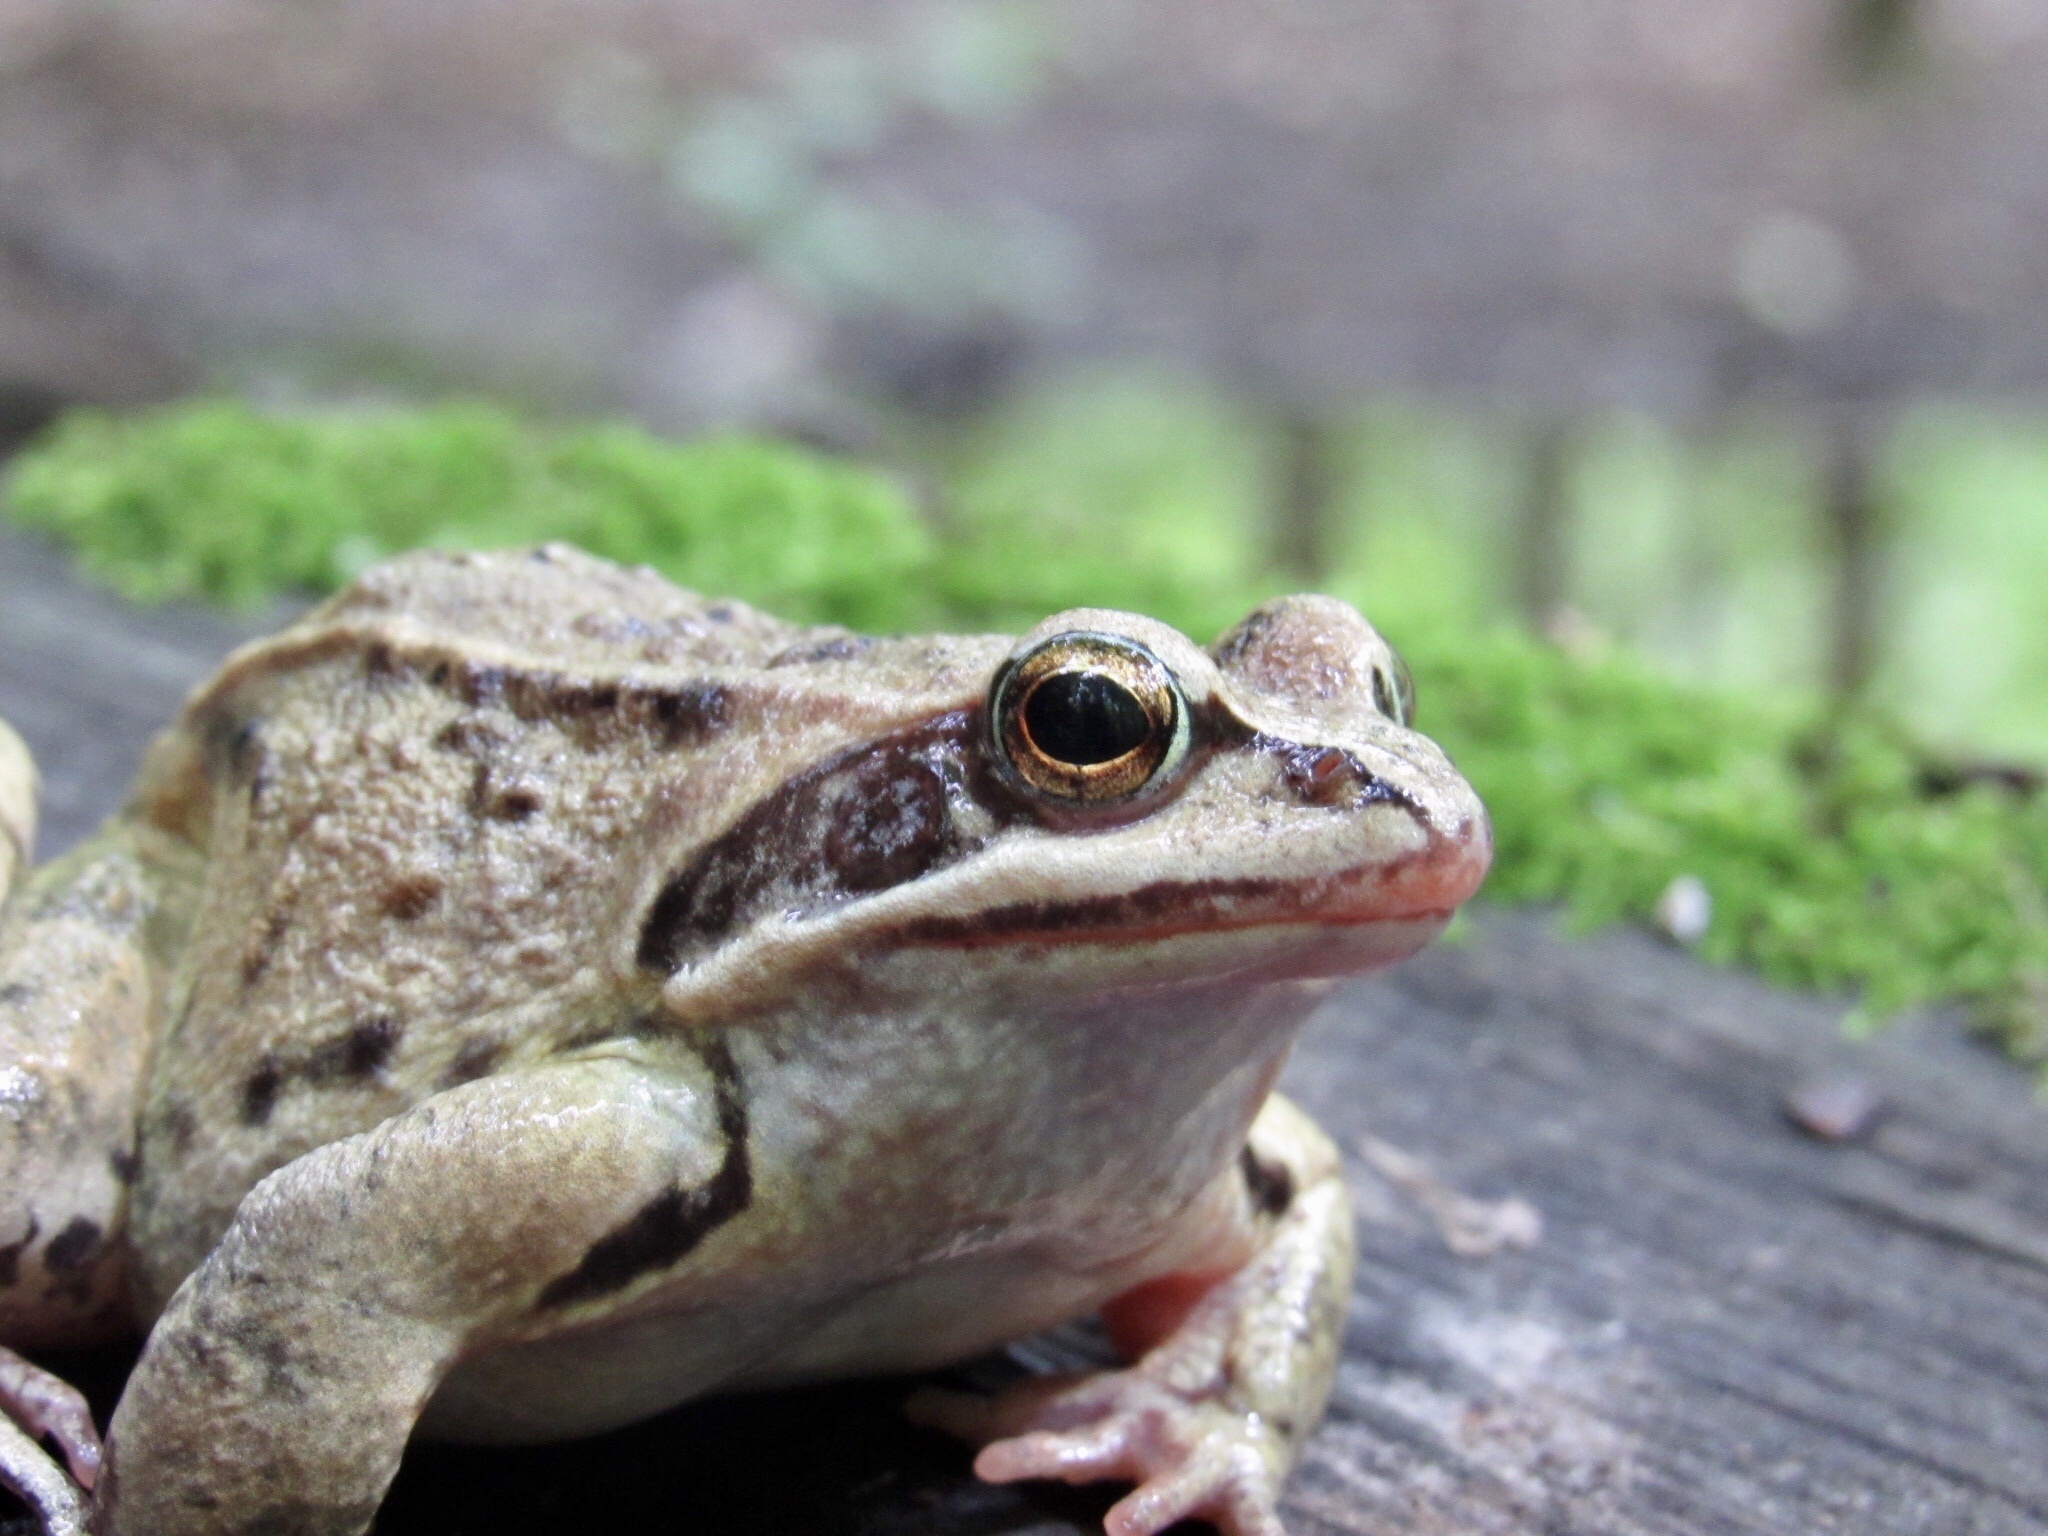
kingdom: Animalia
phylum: Chordata
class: Amphibia
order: Anura
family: Ranidae
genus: Rana
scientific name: Rana arvalis
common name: Moor frog
